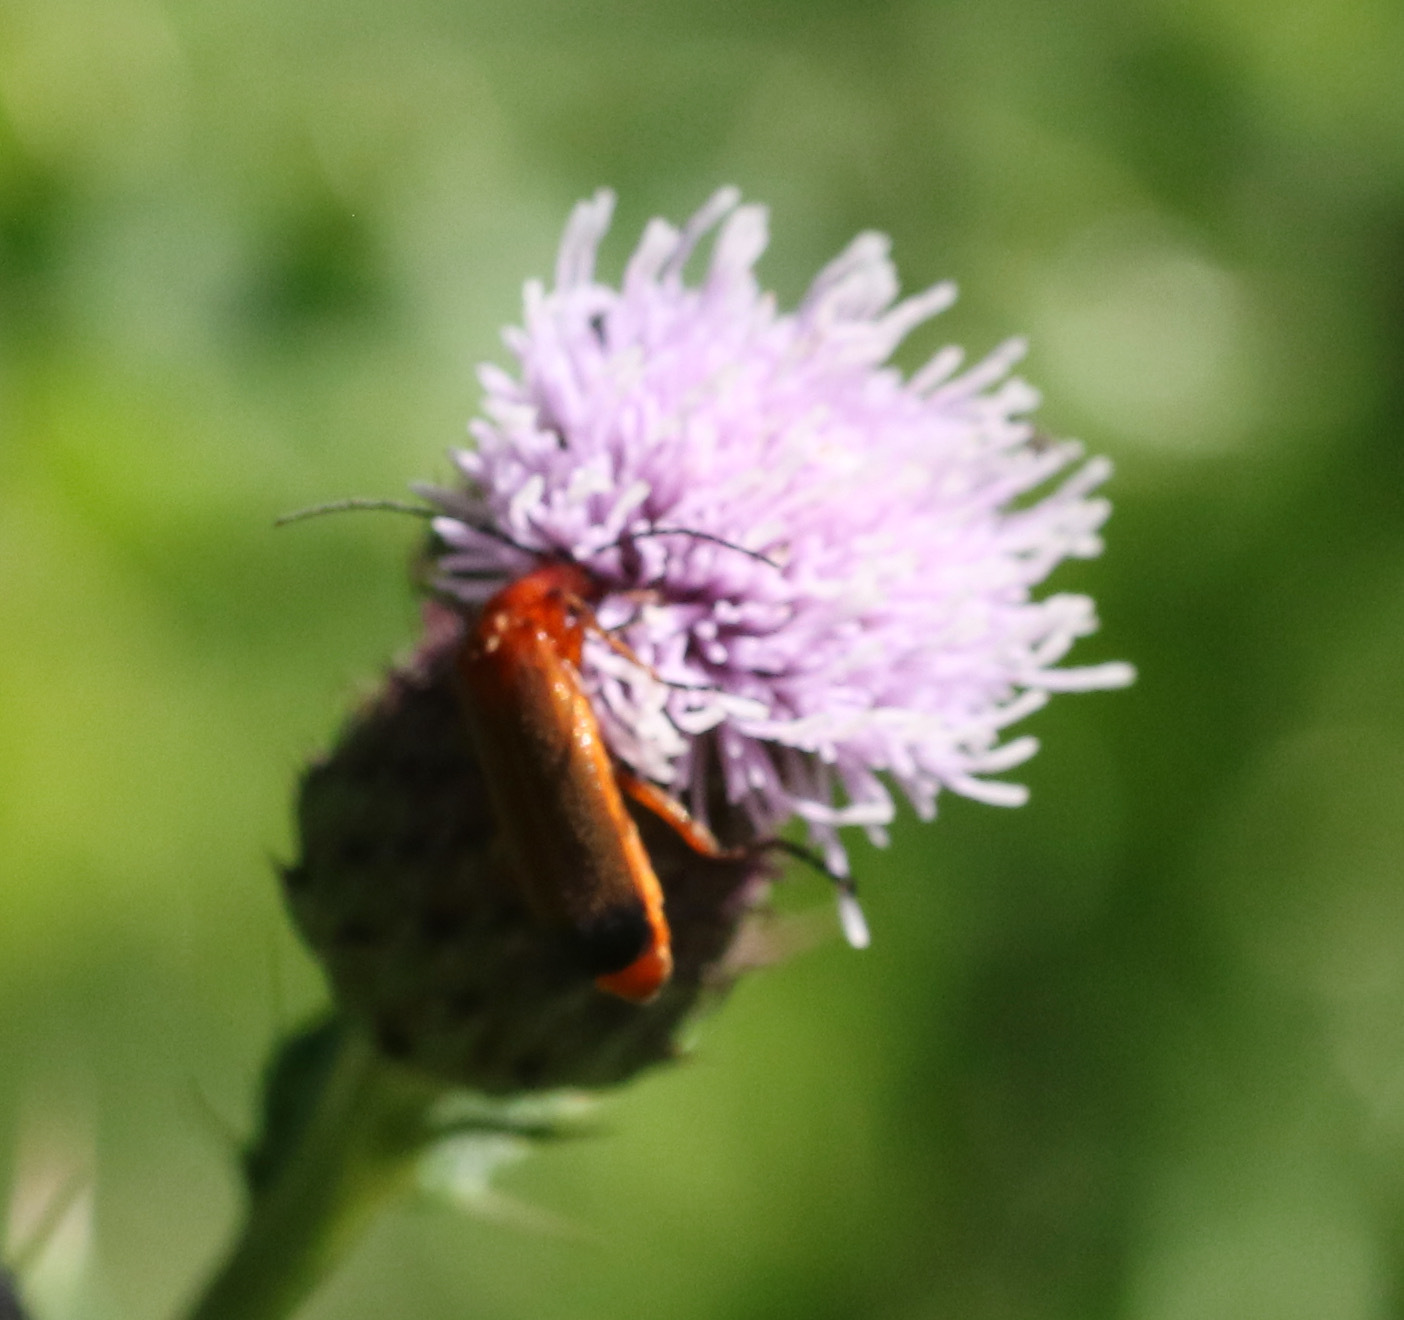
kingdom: Animalia
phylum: Arthropoda
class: Insecta
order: Coleoptera
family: Cantharidae
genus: Rhagonycha
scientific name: Rhagonycha fulva
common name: Common red soldier beetle
